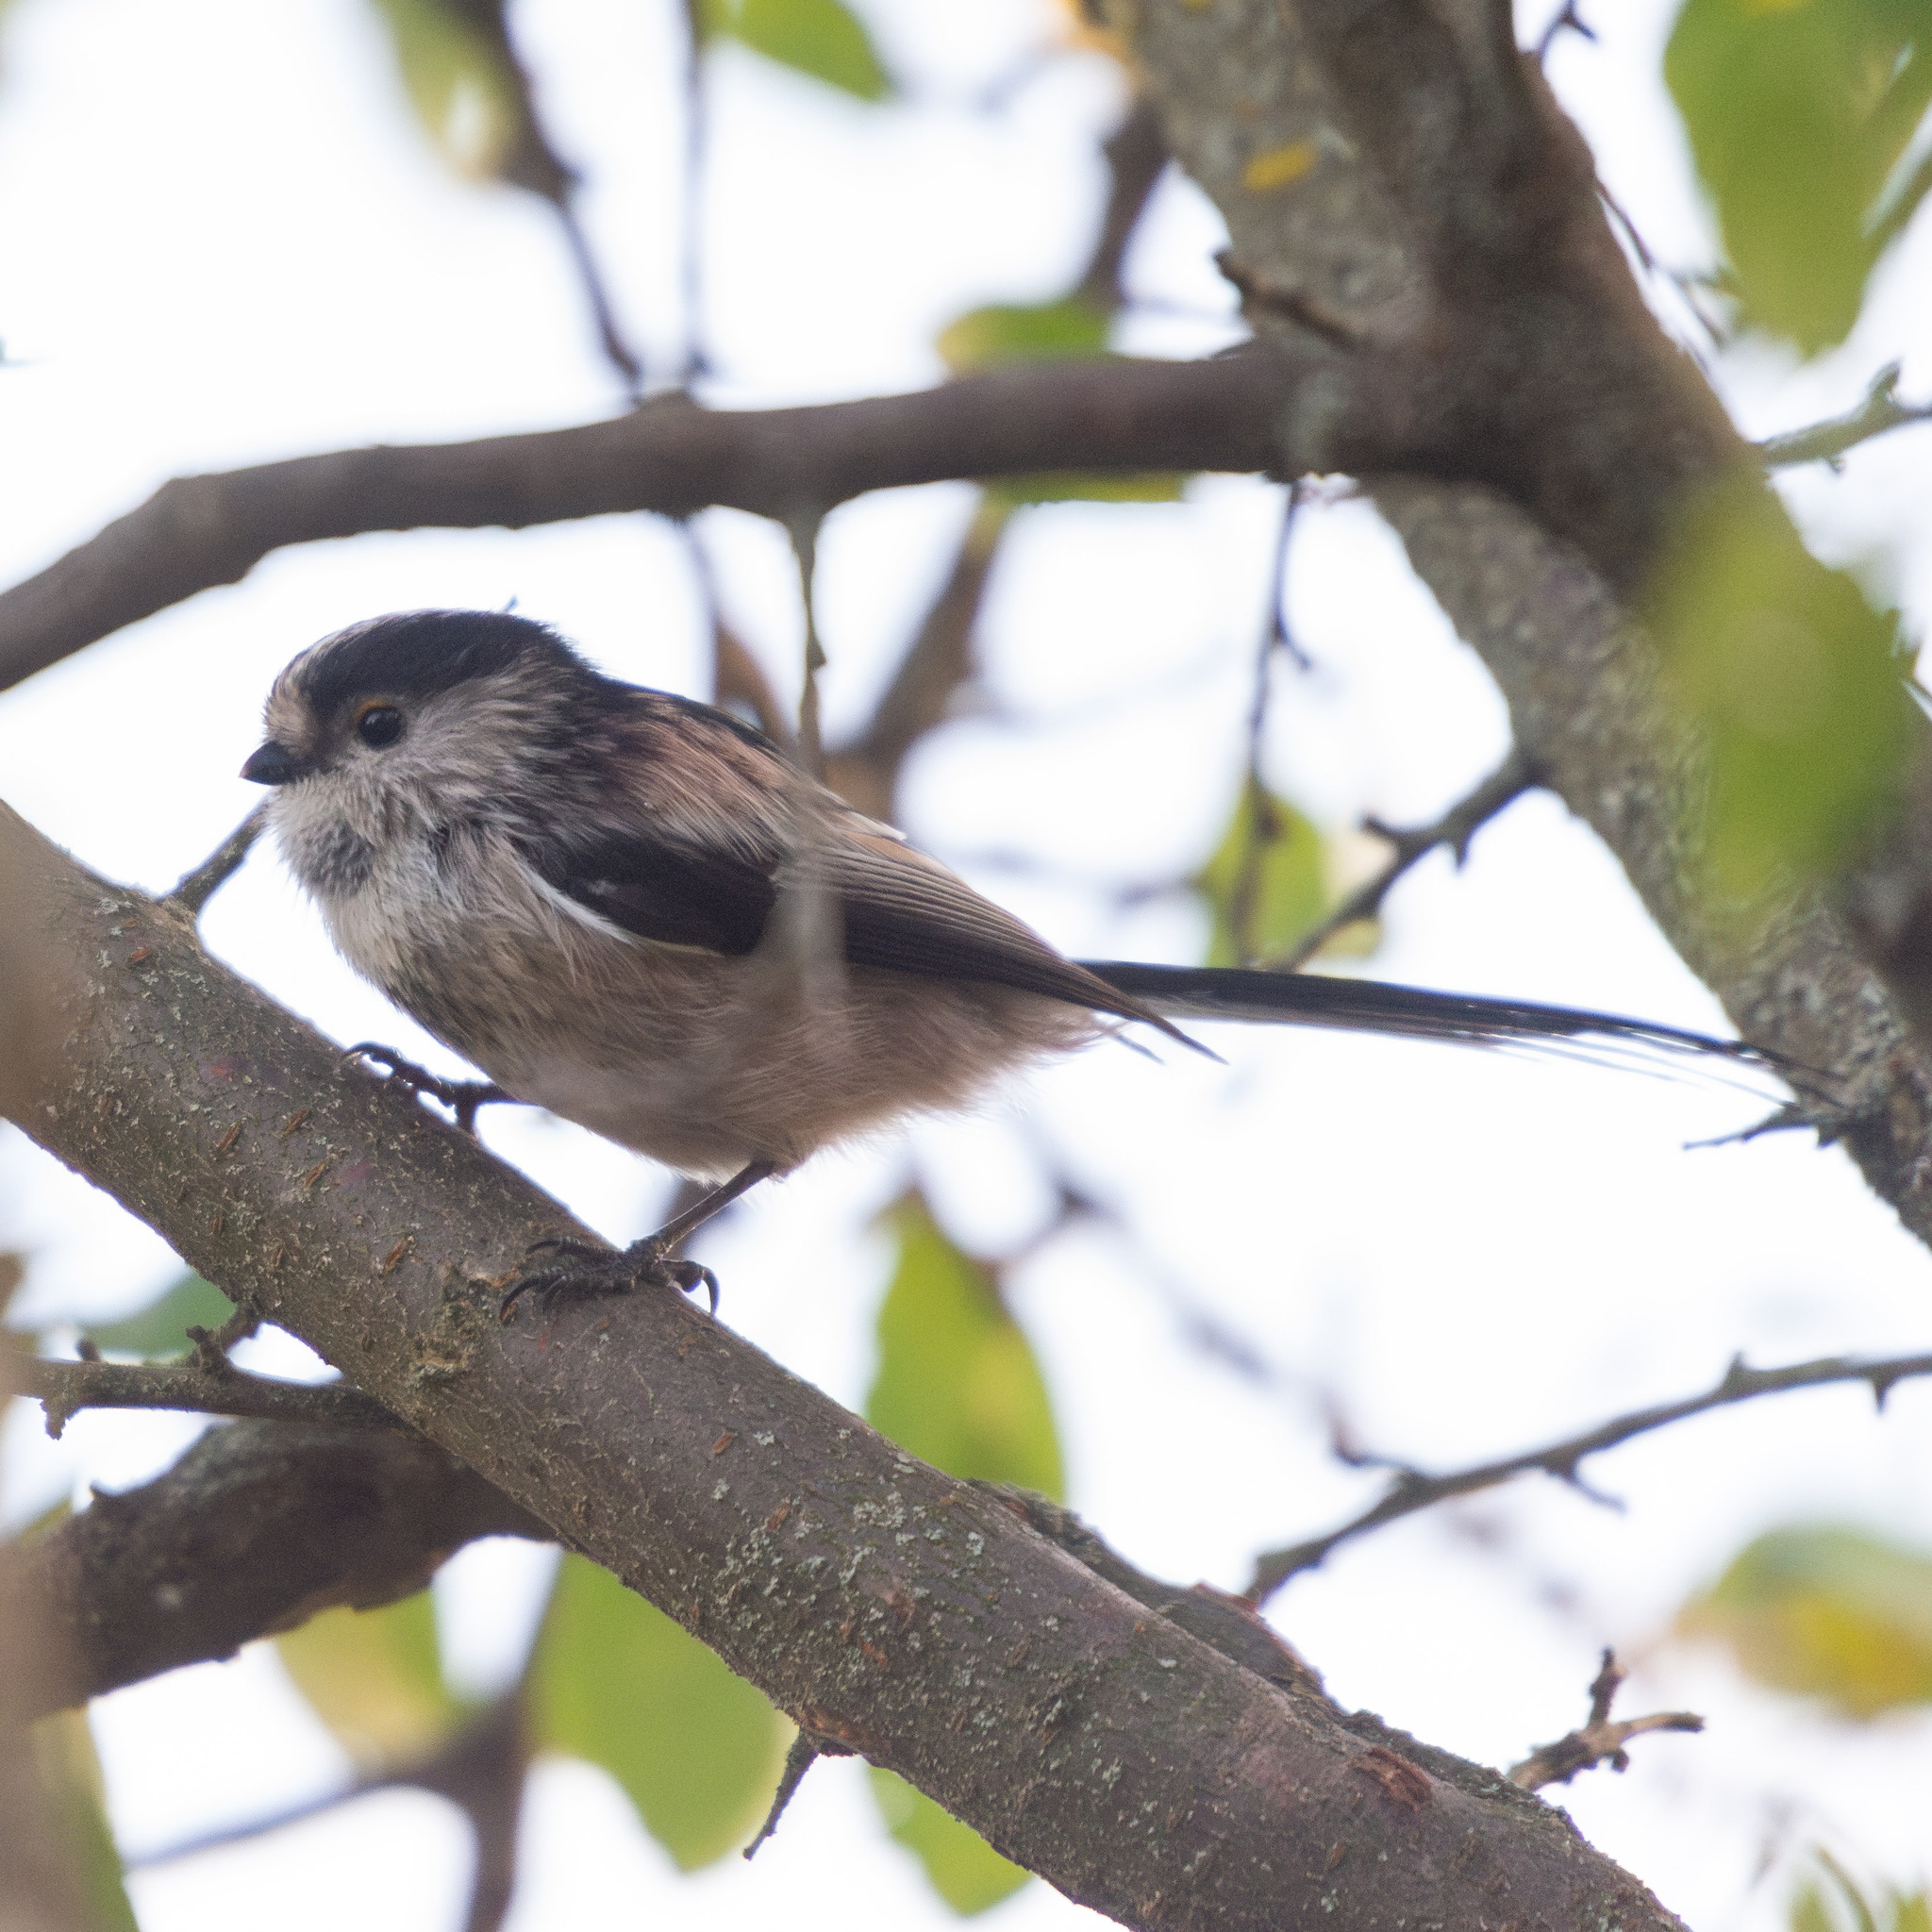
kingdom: Animalia
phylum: Chordata
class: Aves
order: Passeriformes
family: Aegithalidae
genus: Aegithalos
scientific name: Aegithalos caudatus
